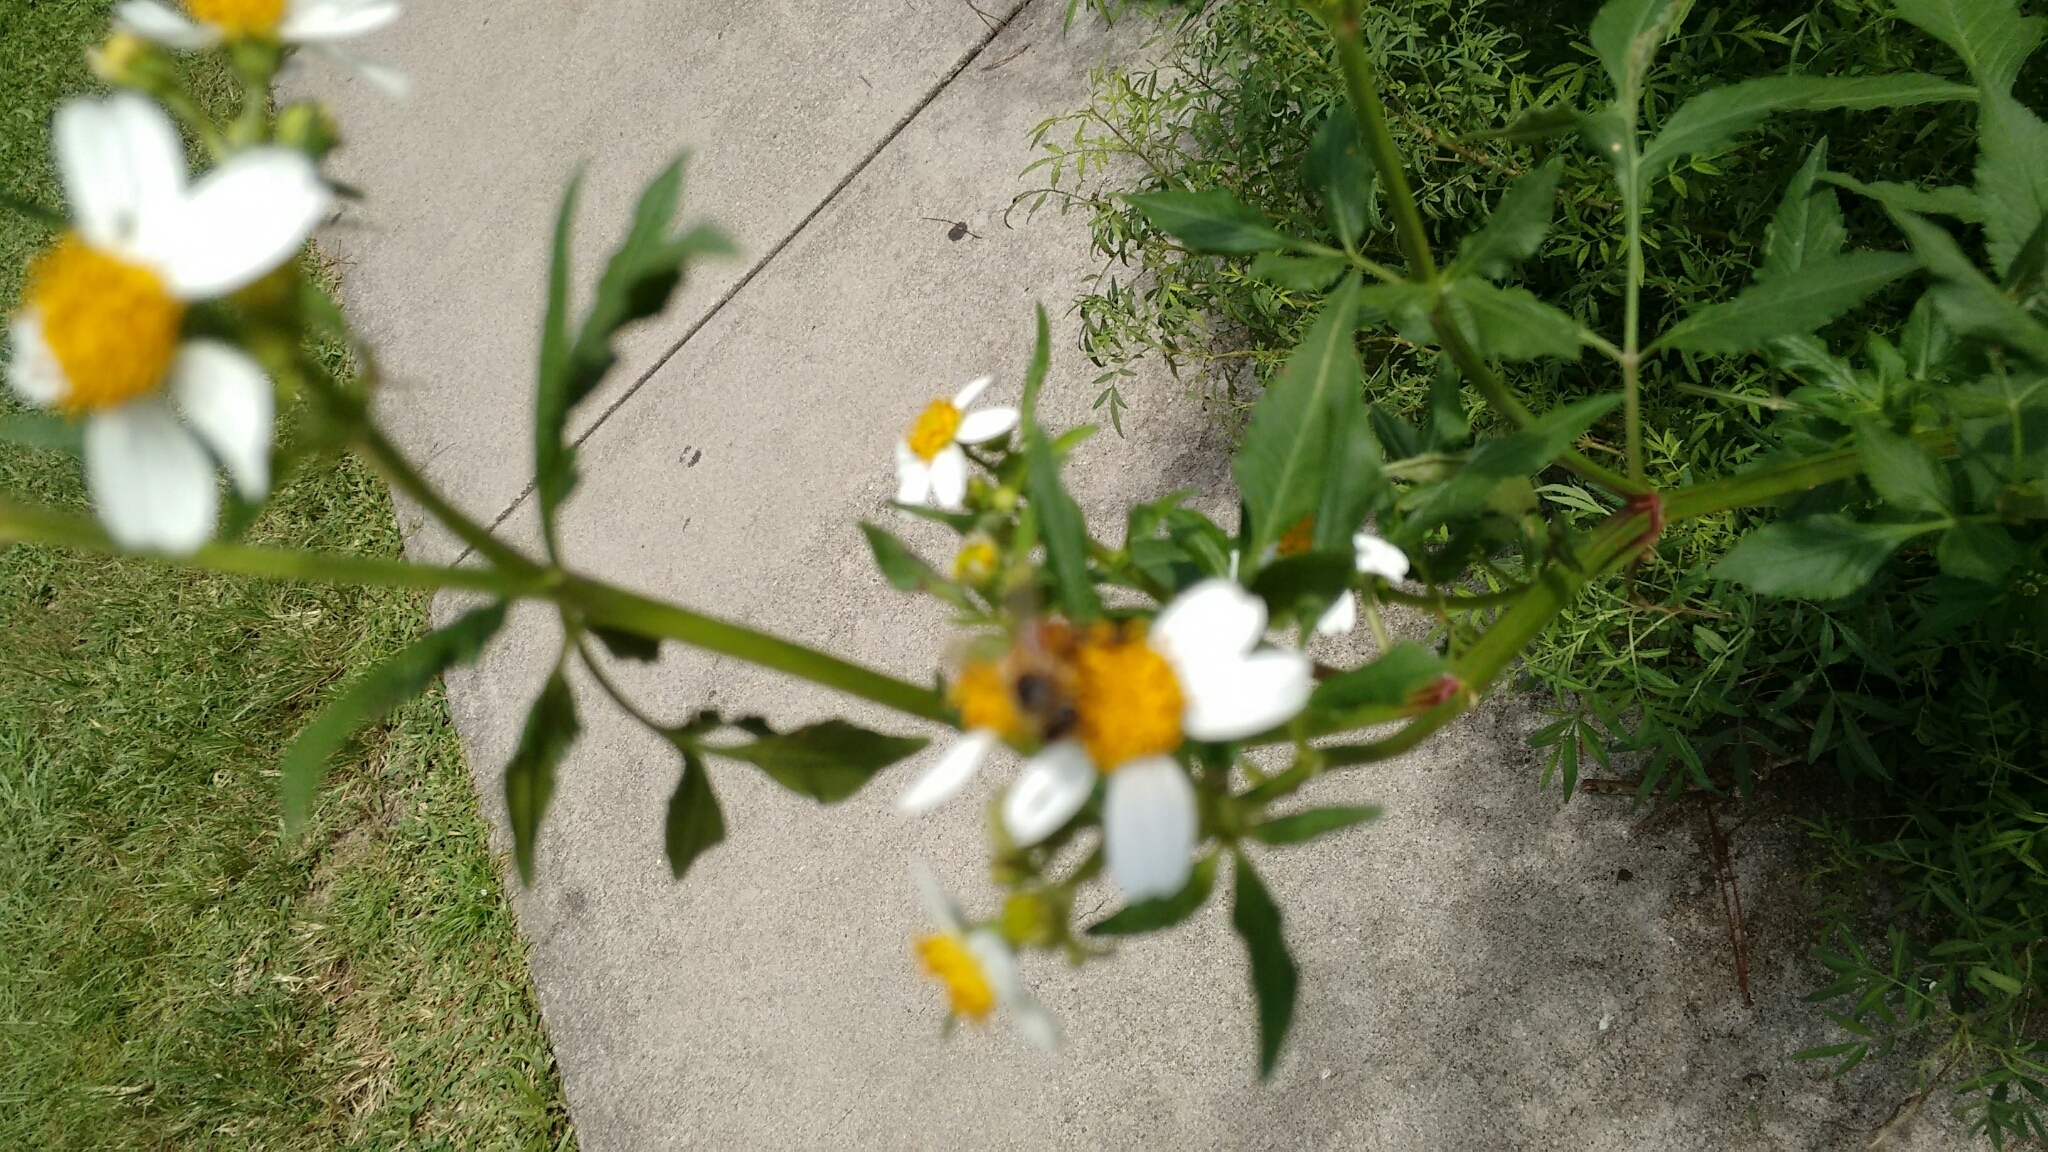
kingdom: Animalia
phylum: Arthropoda
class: Insecta
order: Hymenoptera
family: Apidae
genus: Apis
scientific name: Apis mellifera
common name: Honey bee
